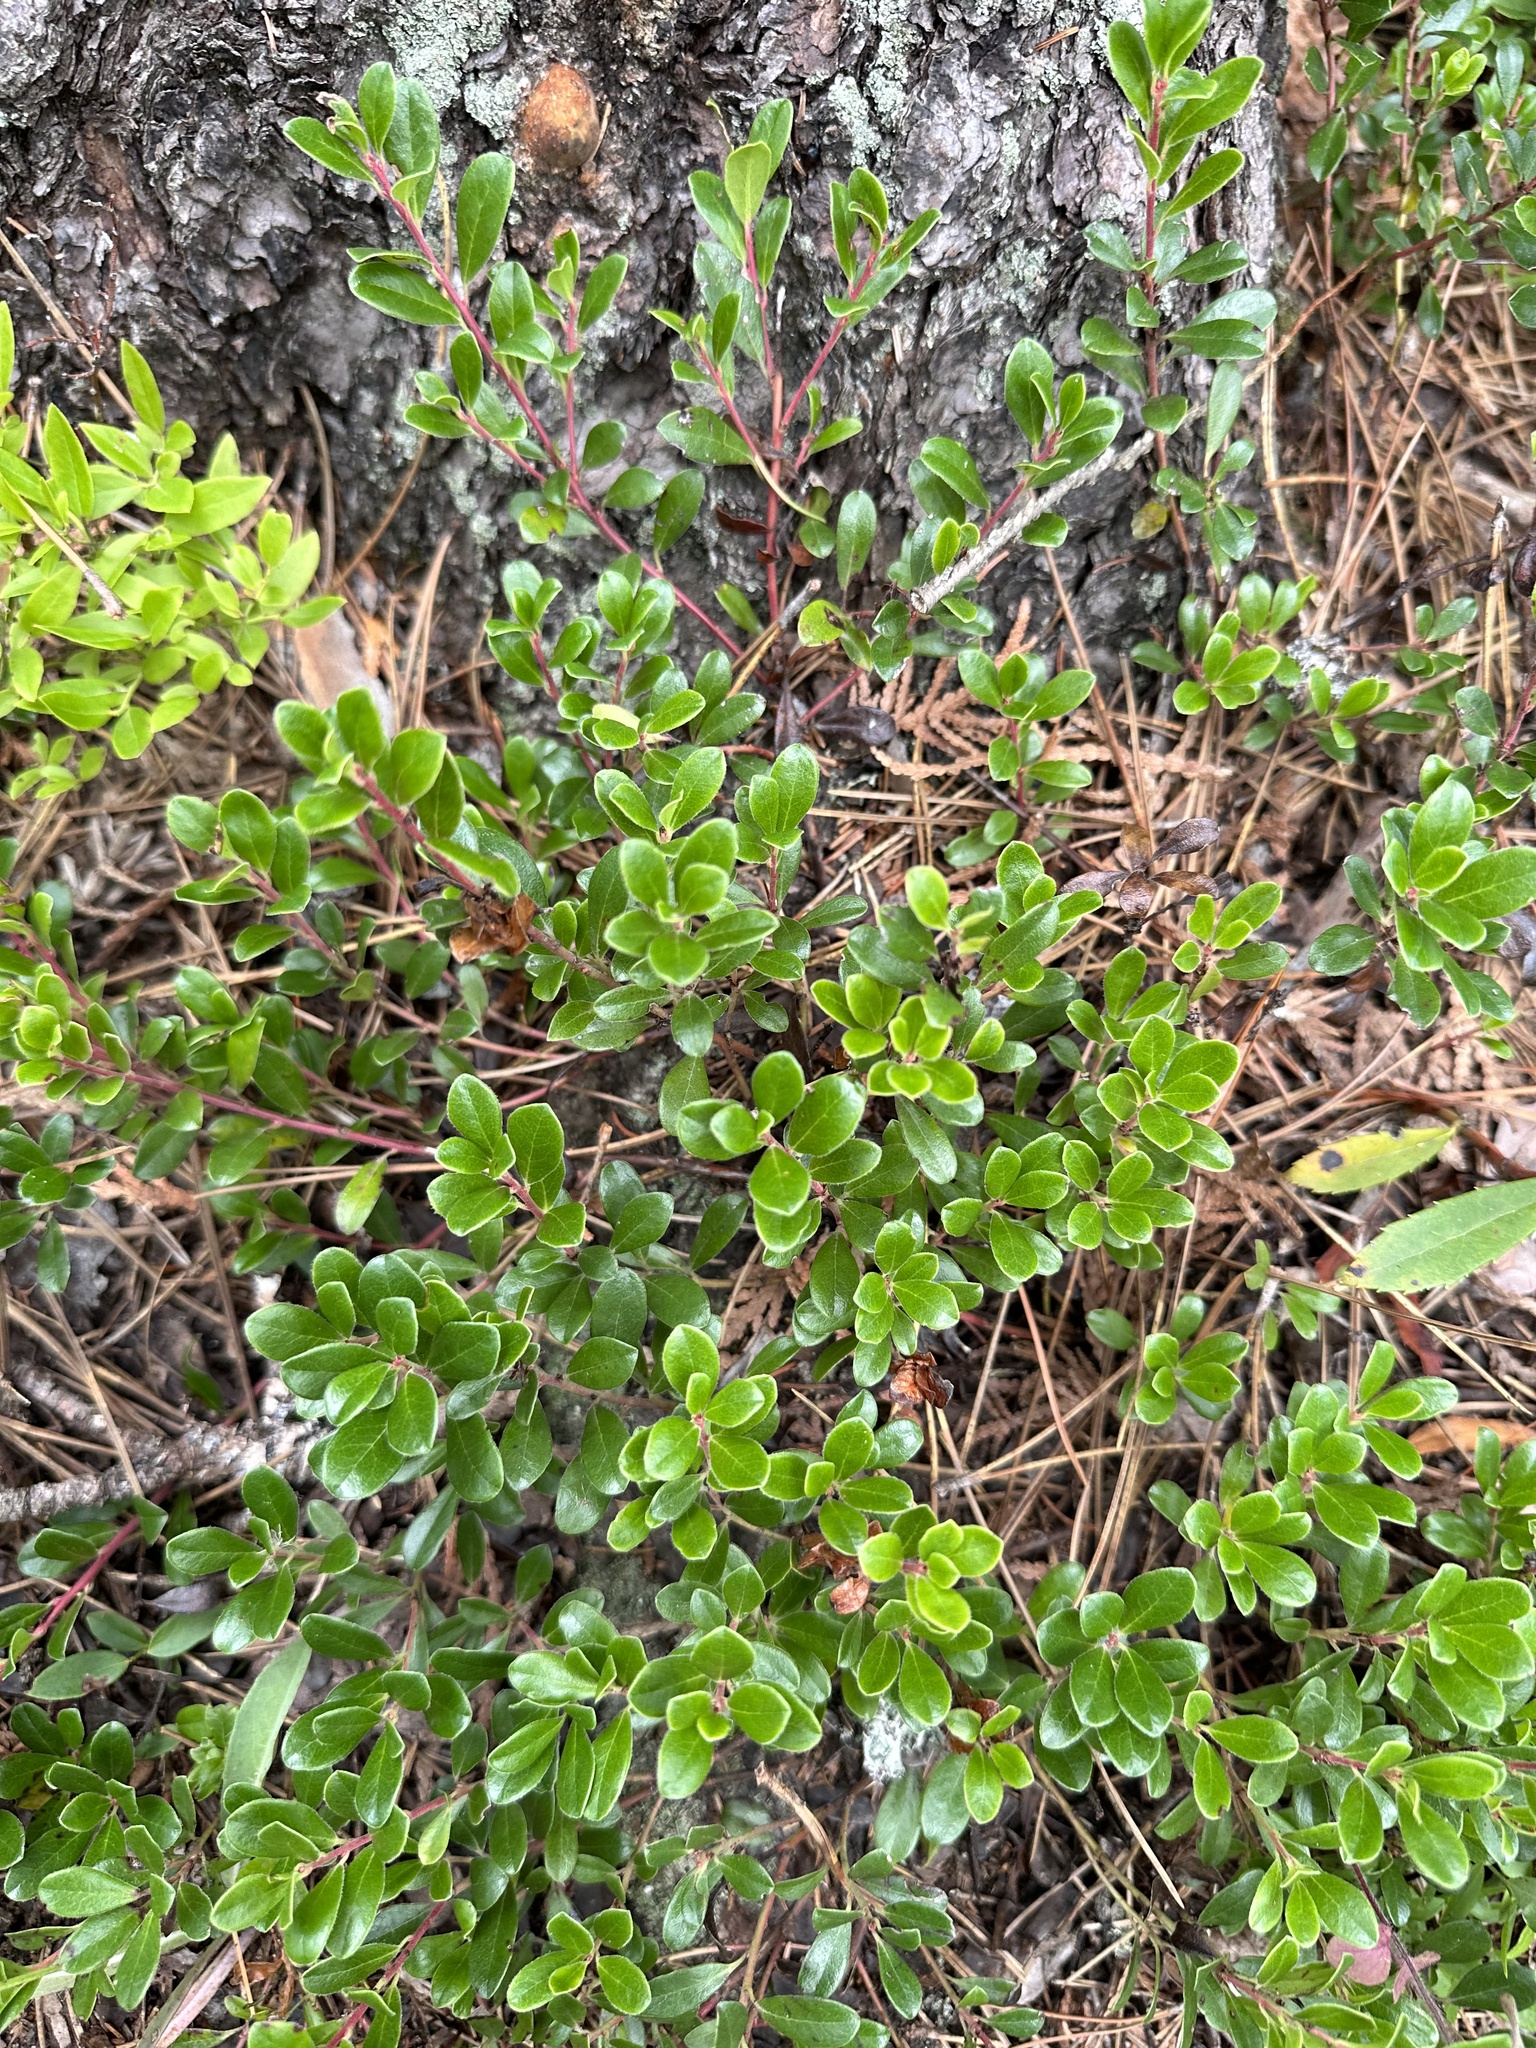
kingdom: Plantae
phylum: Tracheophyta
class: Magnoliopsida
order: Ericales
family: Ericaceae
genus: Arctostaphylos
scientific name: Arctostaphylos uva-ursi
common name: Bearberry
